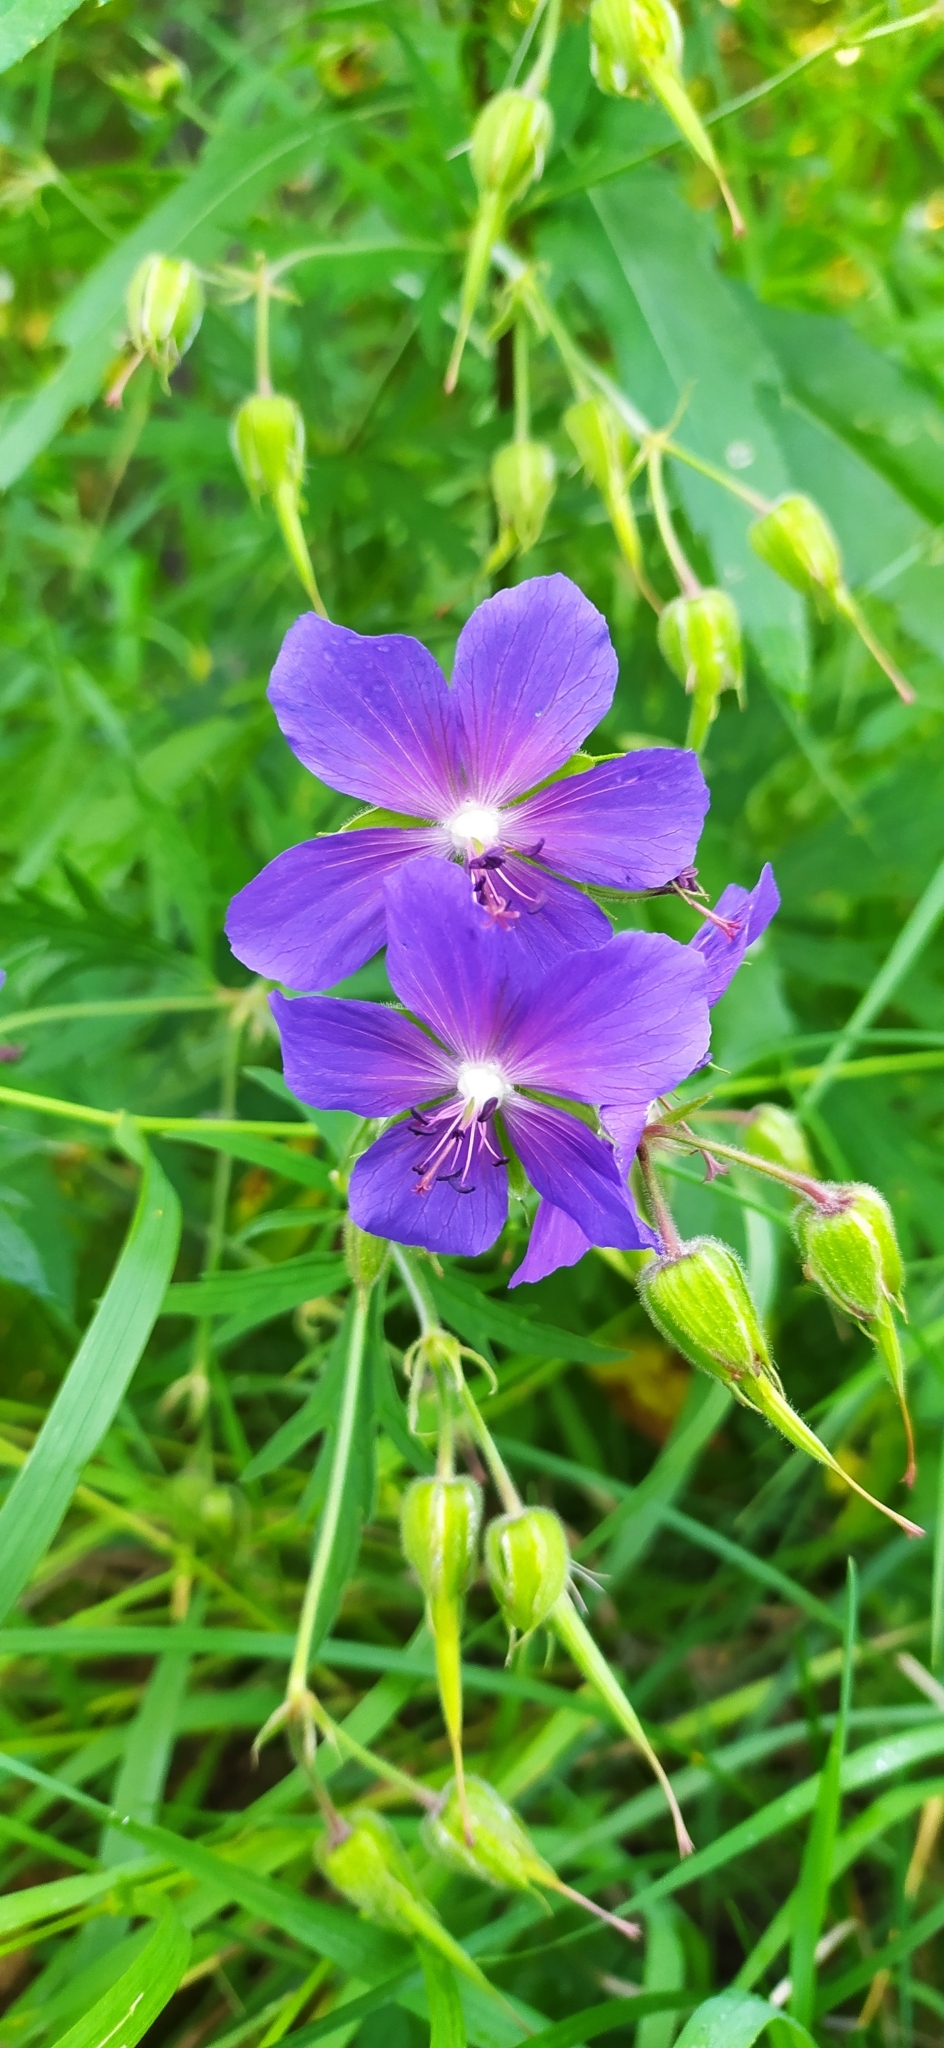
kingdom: Plantae
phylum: Tracheophyta
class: Magnoliopsida
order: Geraniales
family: Geraniaceae
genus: Geranium
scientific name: Geranium pratense
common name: Meadow crane's-bill
